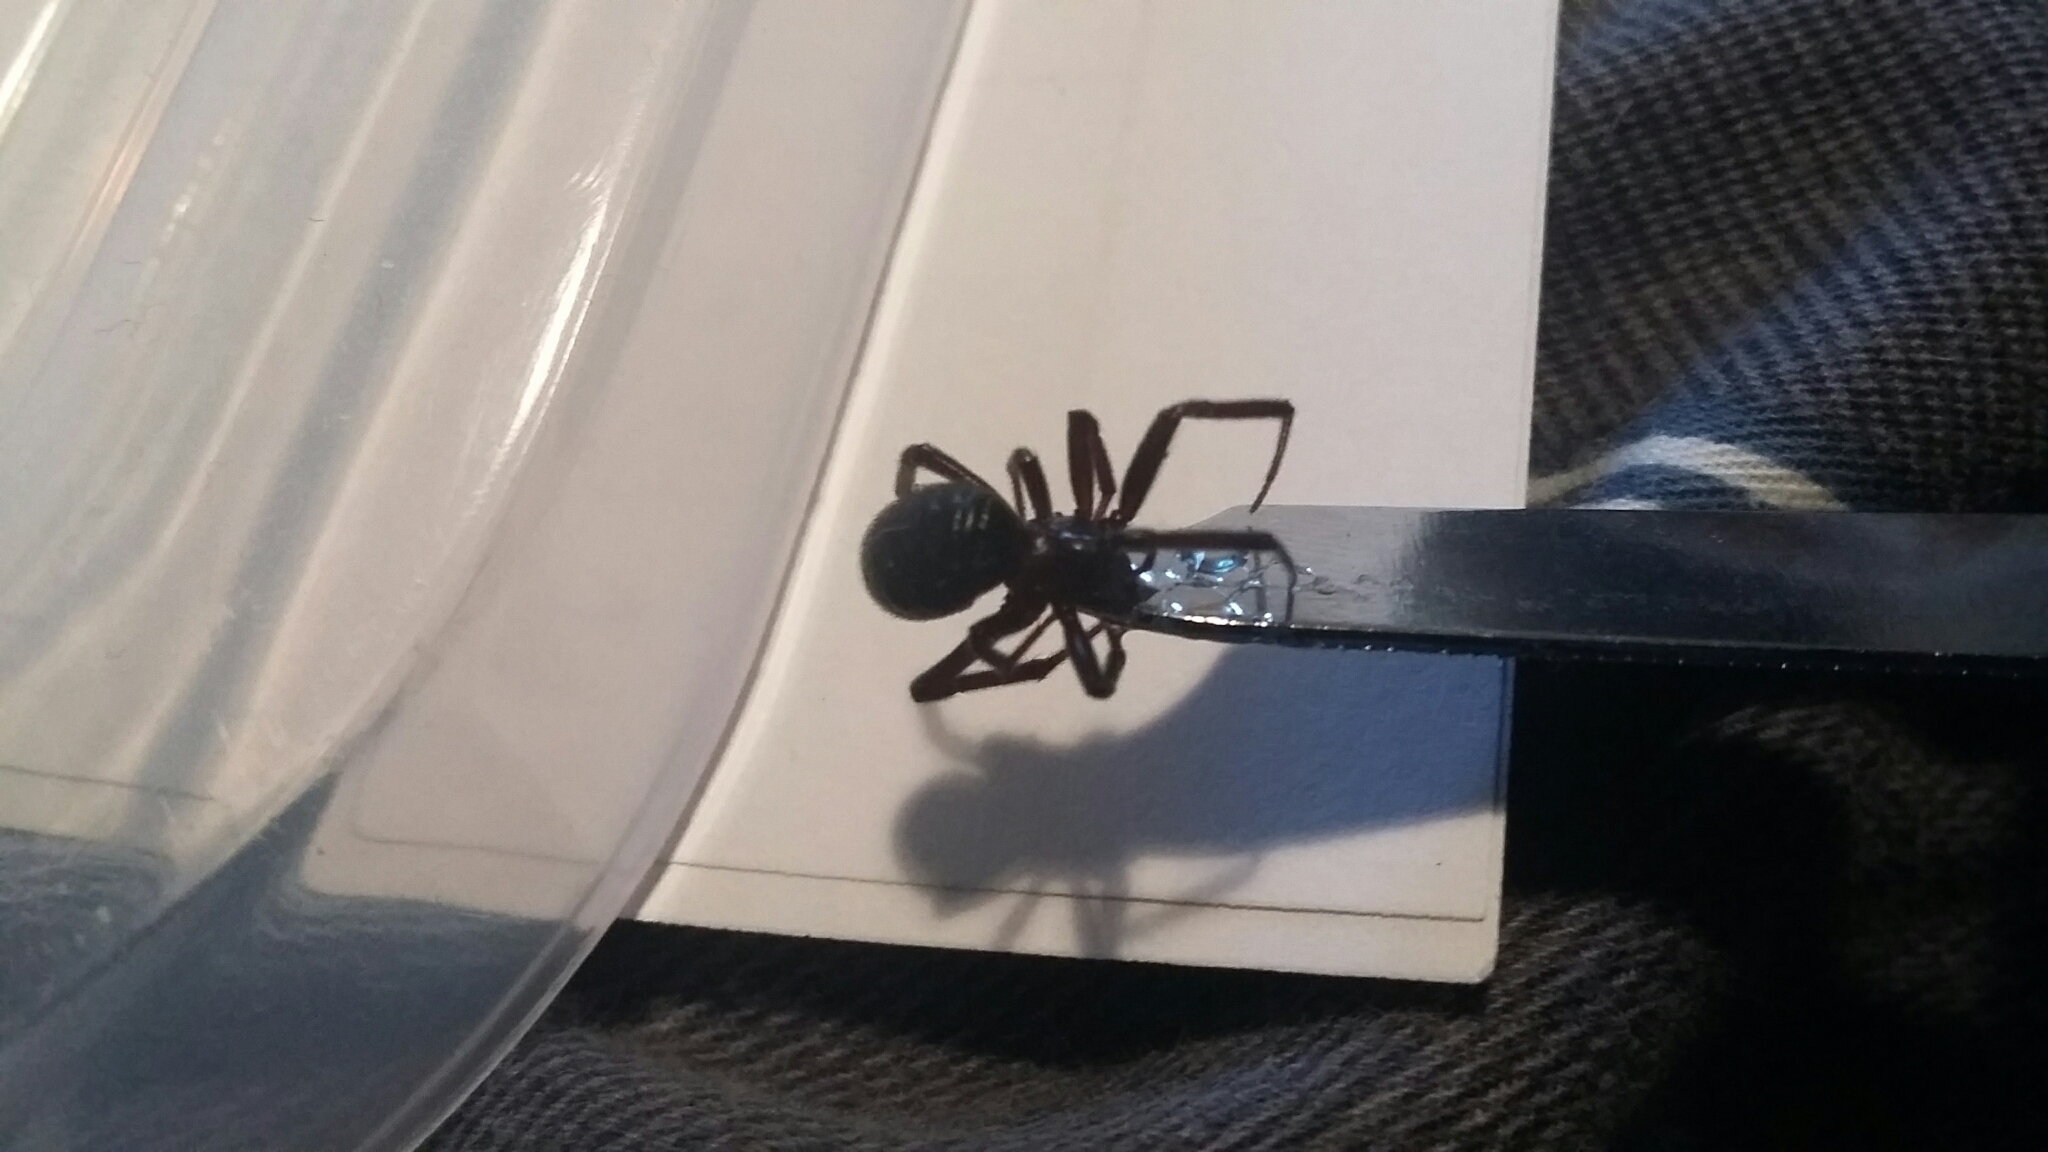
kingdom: Animalia
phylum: Arthropoda
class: Arachnida
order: Araneae
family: Theridiidae
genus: Steatoda
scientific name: Steatoda capensis
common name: Cobweb weaver
